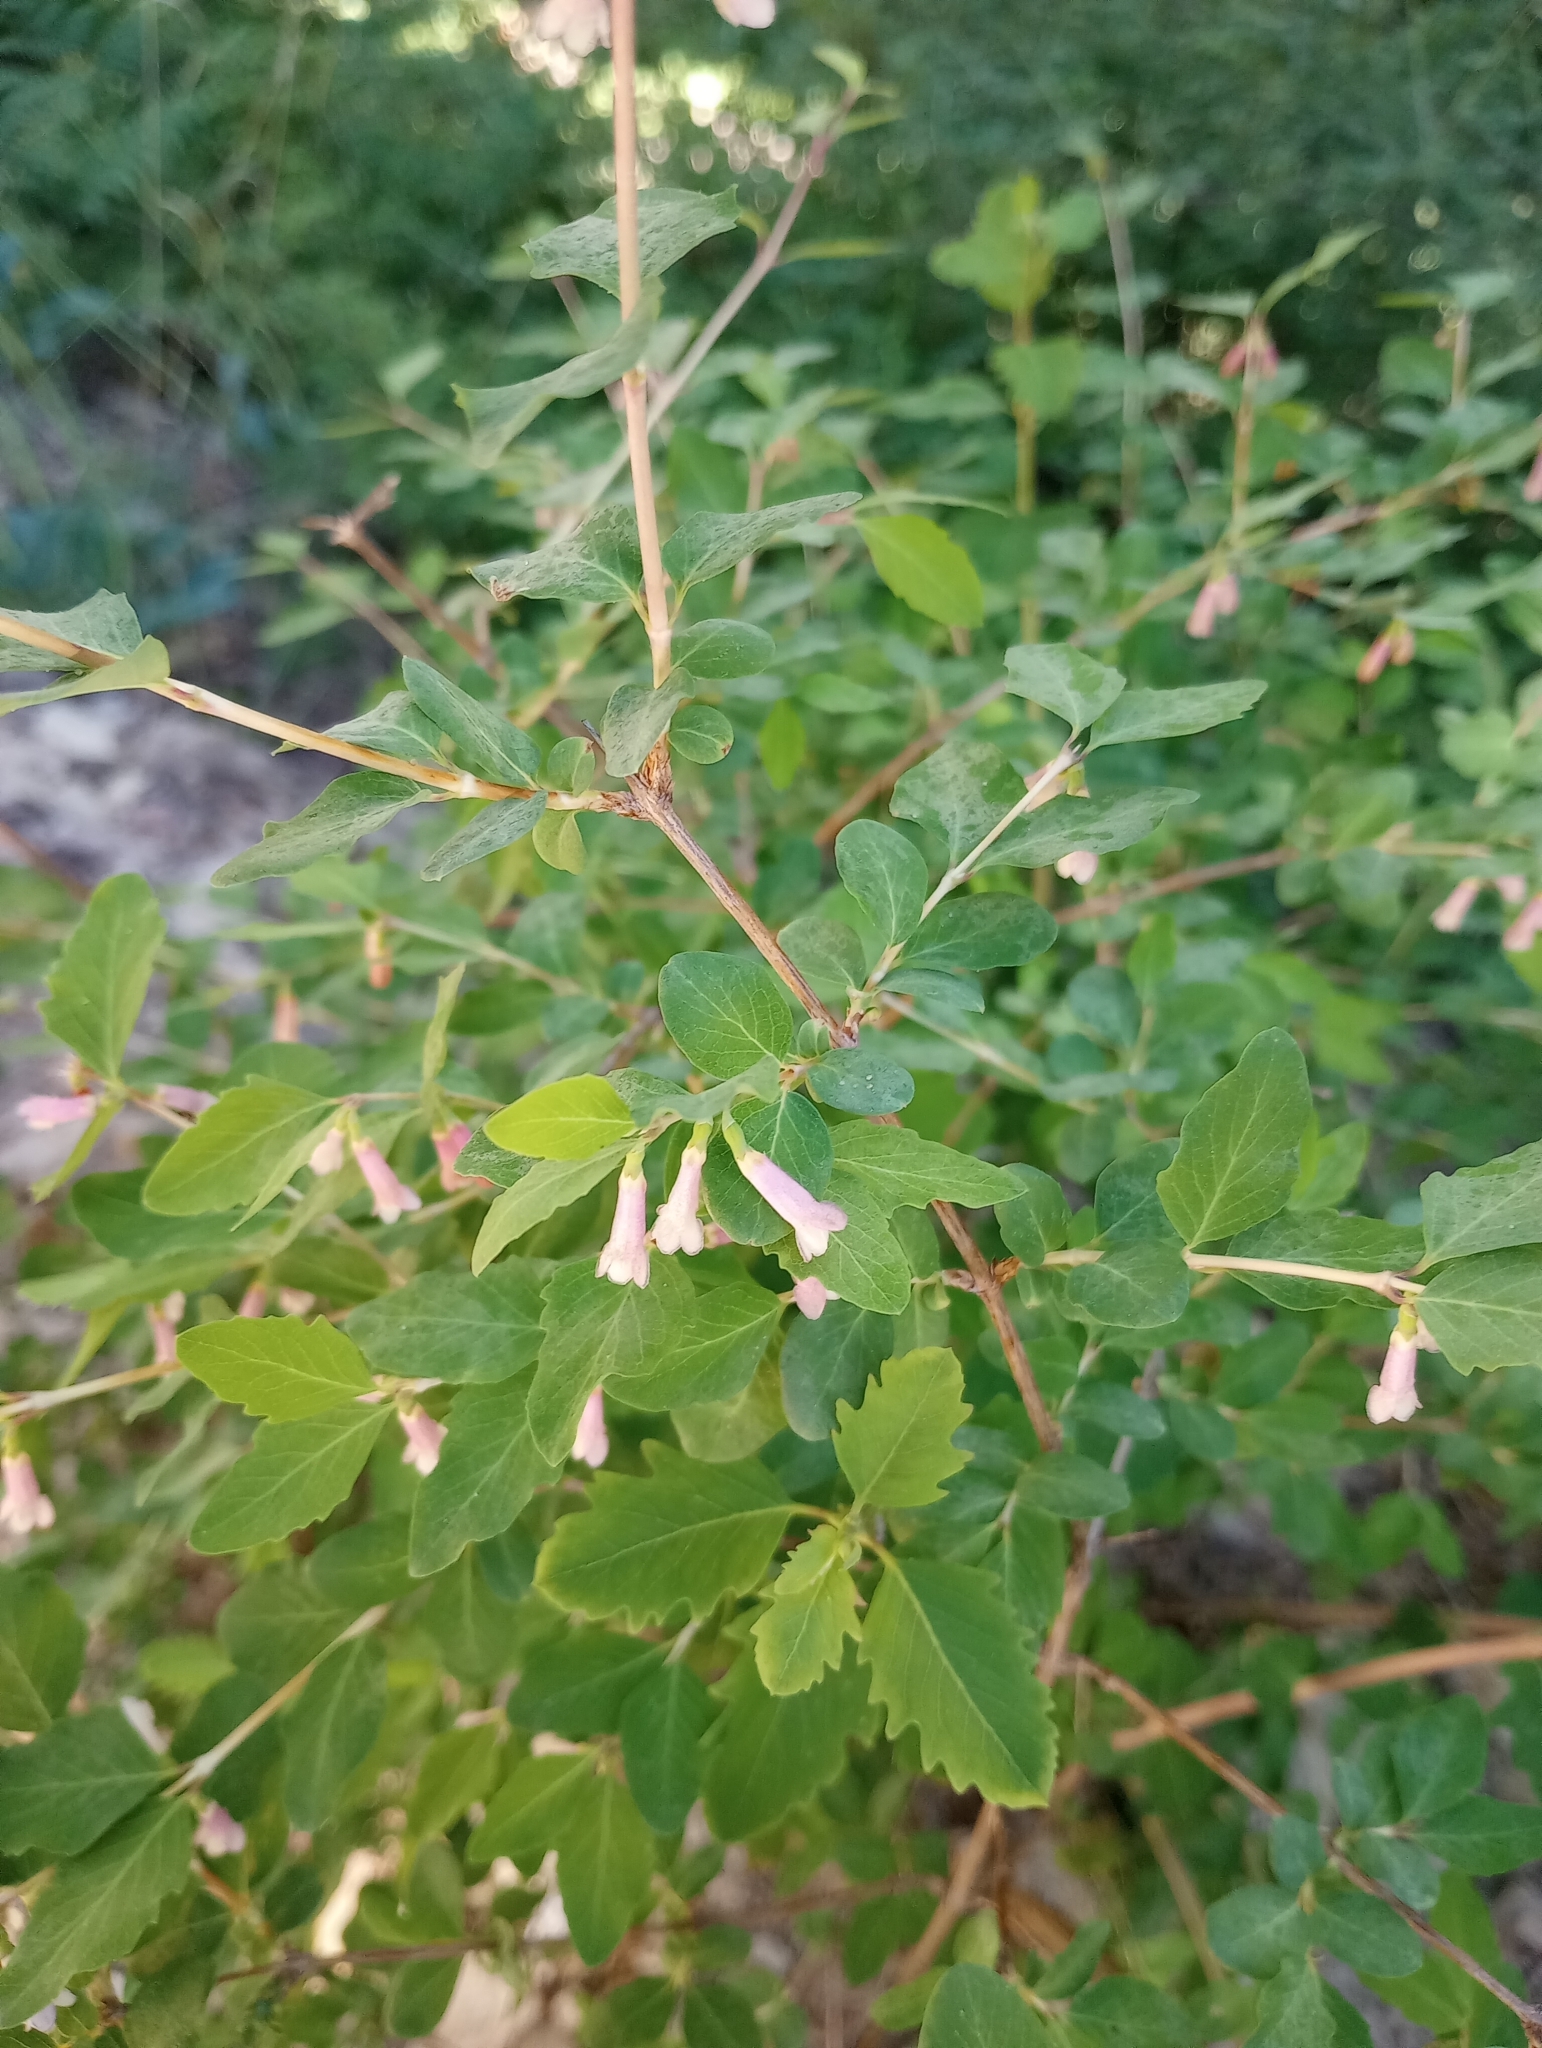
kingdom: Plantae
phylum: Tracheophyta
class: Magnoliopsida
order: Dipsacales
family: Caprifoliaceae
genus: Symphoricarpos
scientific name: Symphoricarpos rotundifolius
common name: Round-leaved snowberry
